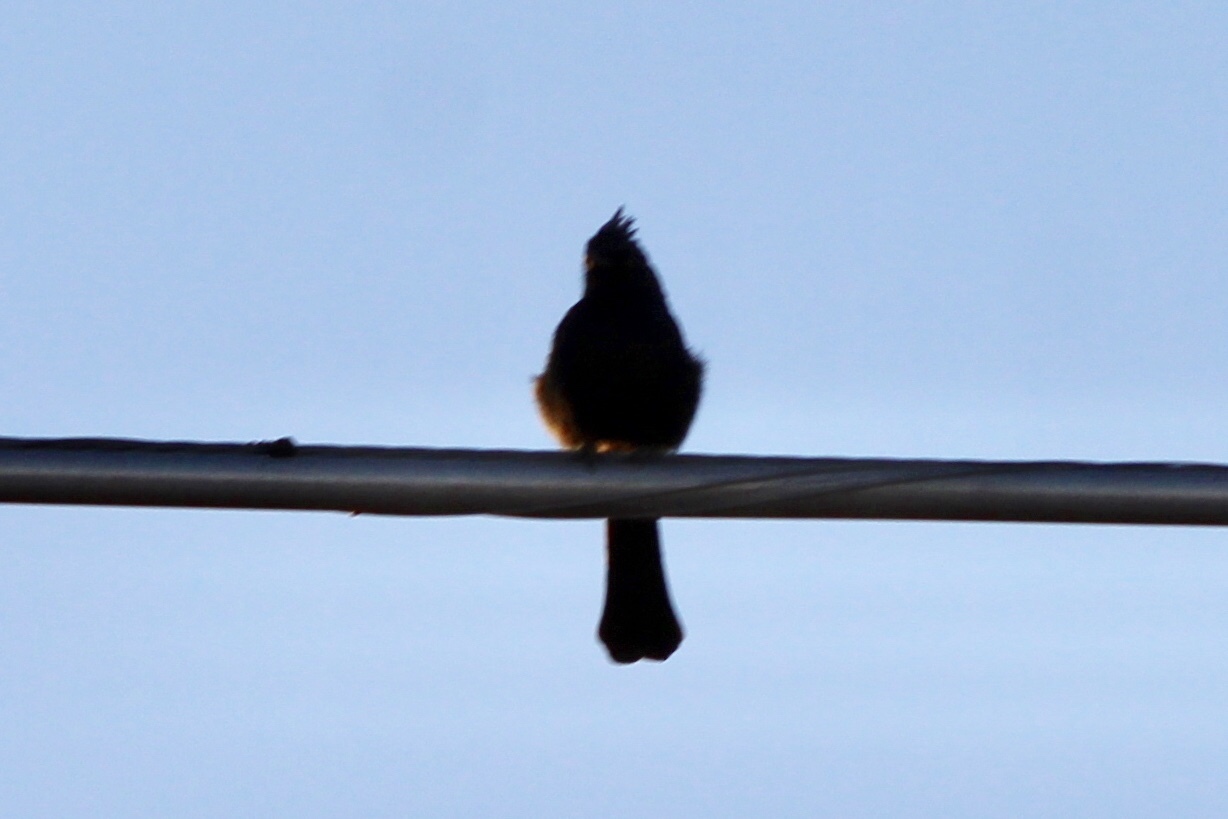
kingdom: Animalia
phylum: Chordata
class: Aves
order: Passeriformes
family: Ptilogonatidae
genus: Phainopepla
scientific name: Phainopepla nitens
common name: Phainopepla
